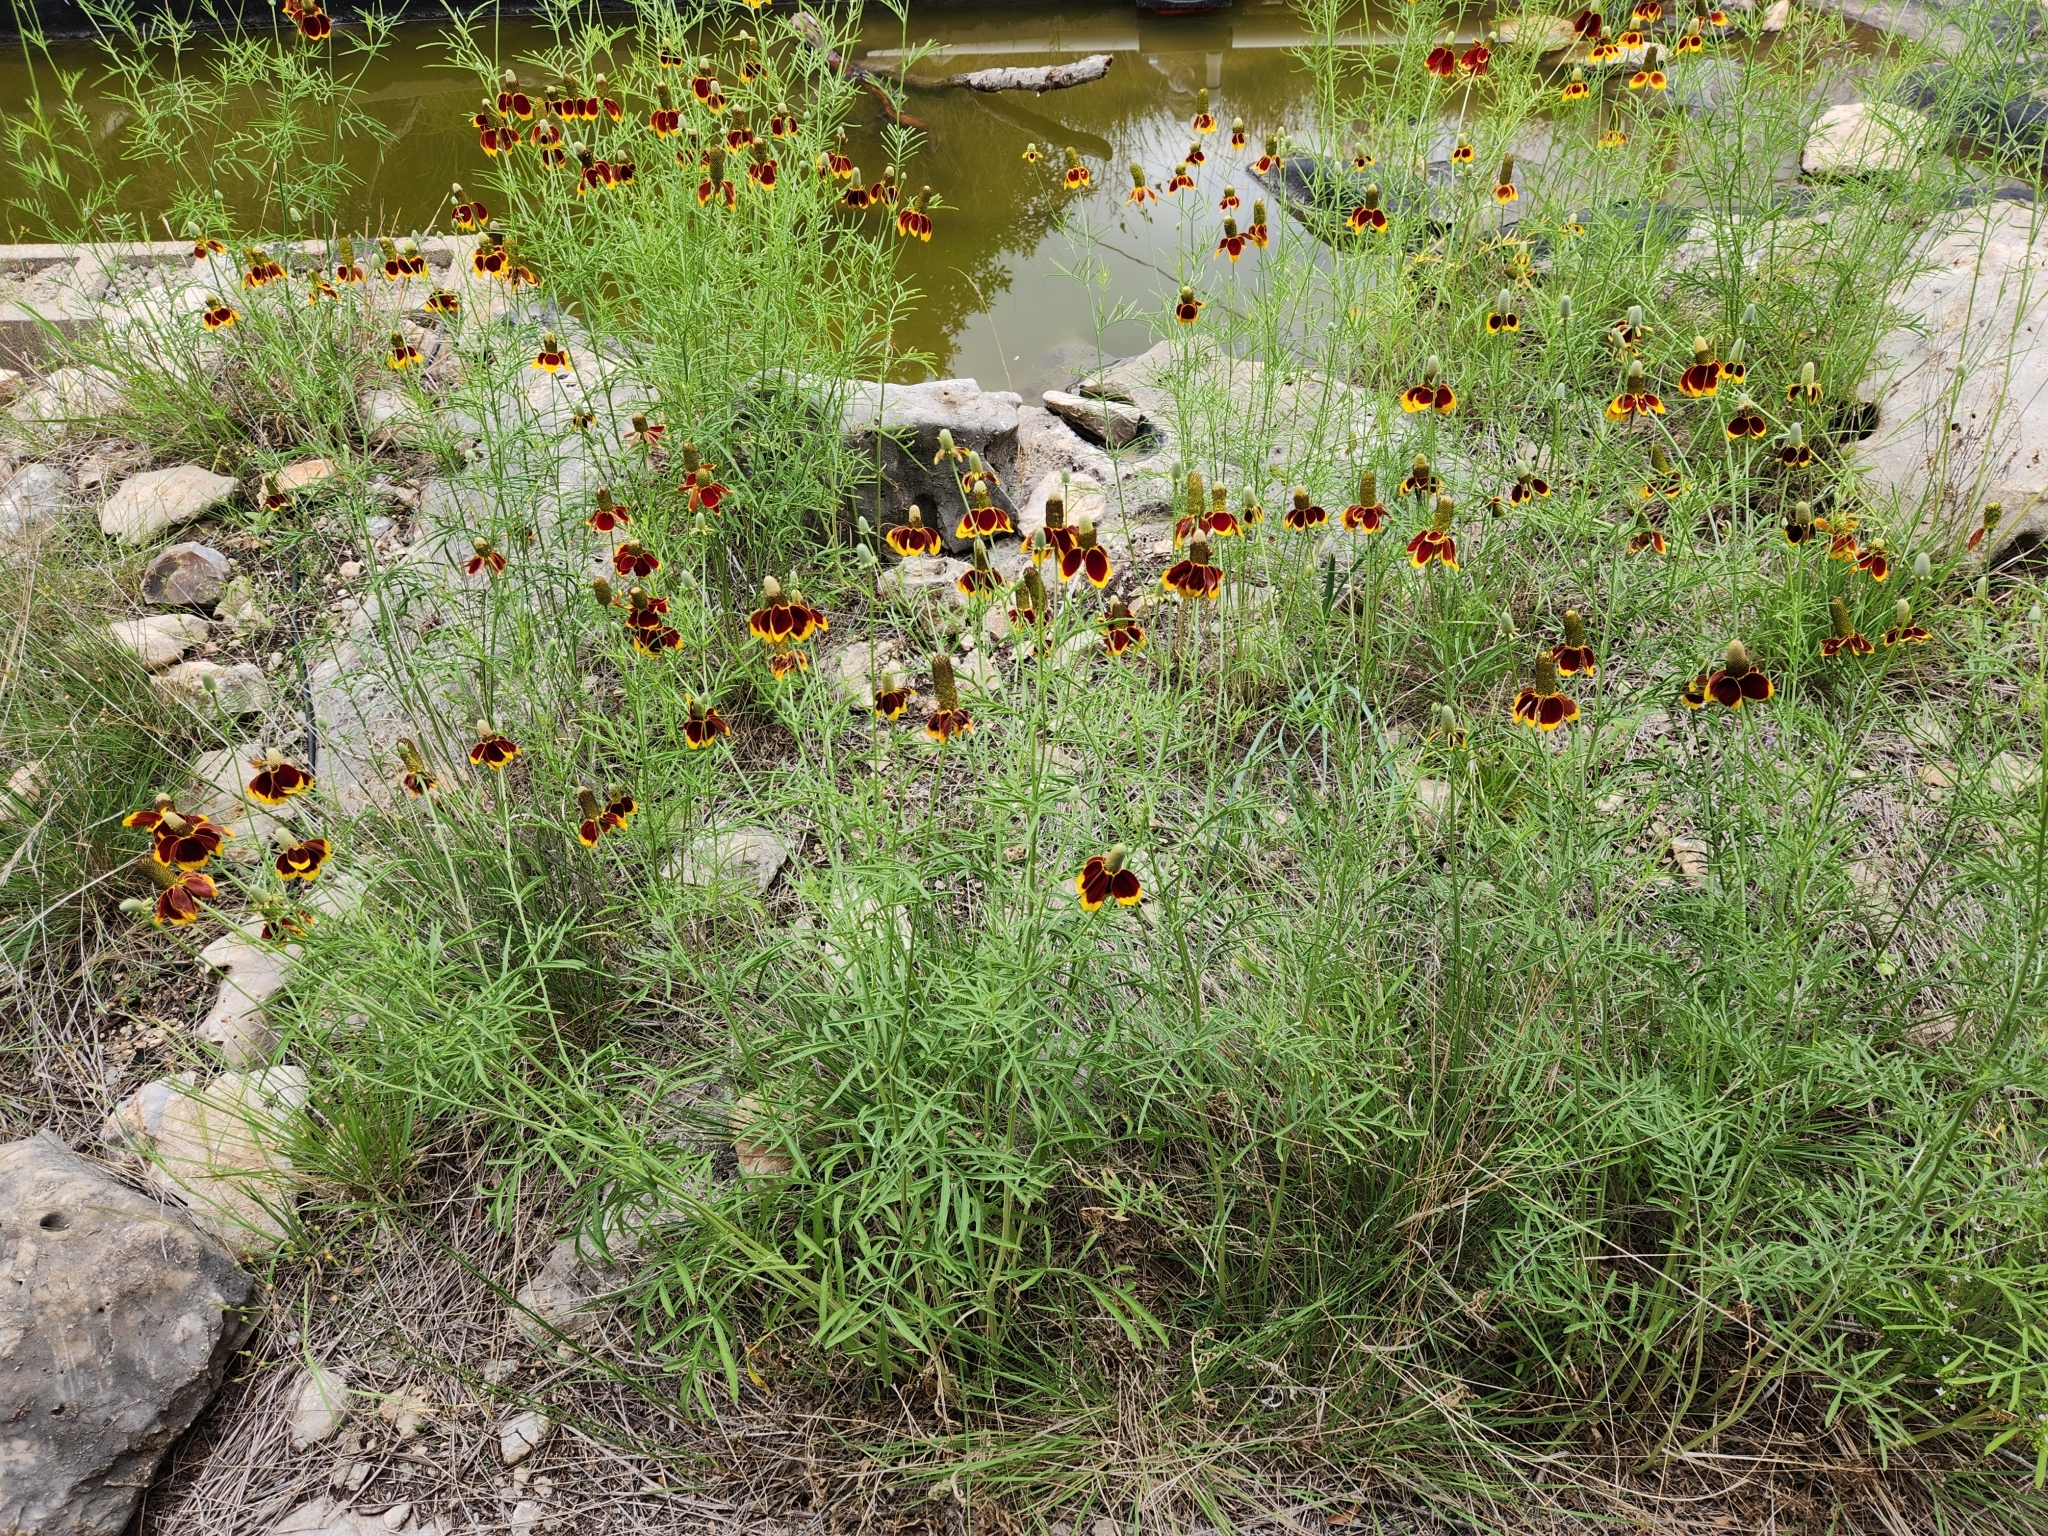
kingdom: Plantae
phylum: Tracheophyta
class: Magnoliopsida
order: Asterales
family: Asteraceae
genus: Ratibida
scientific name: Ratibida columnifera
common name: Prairie coneflower
